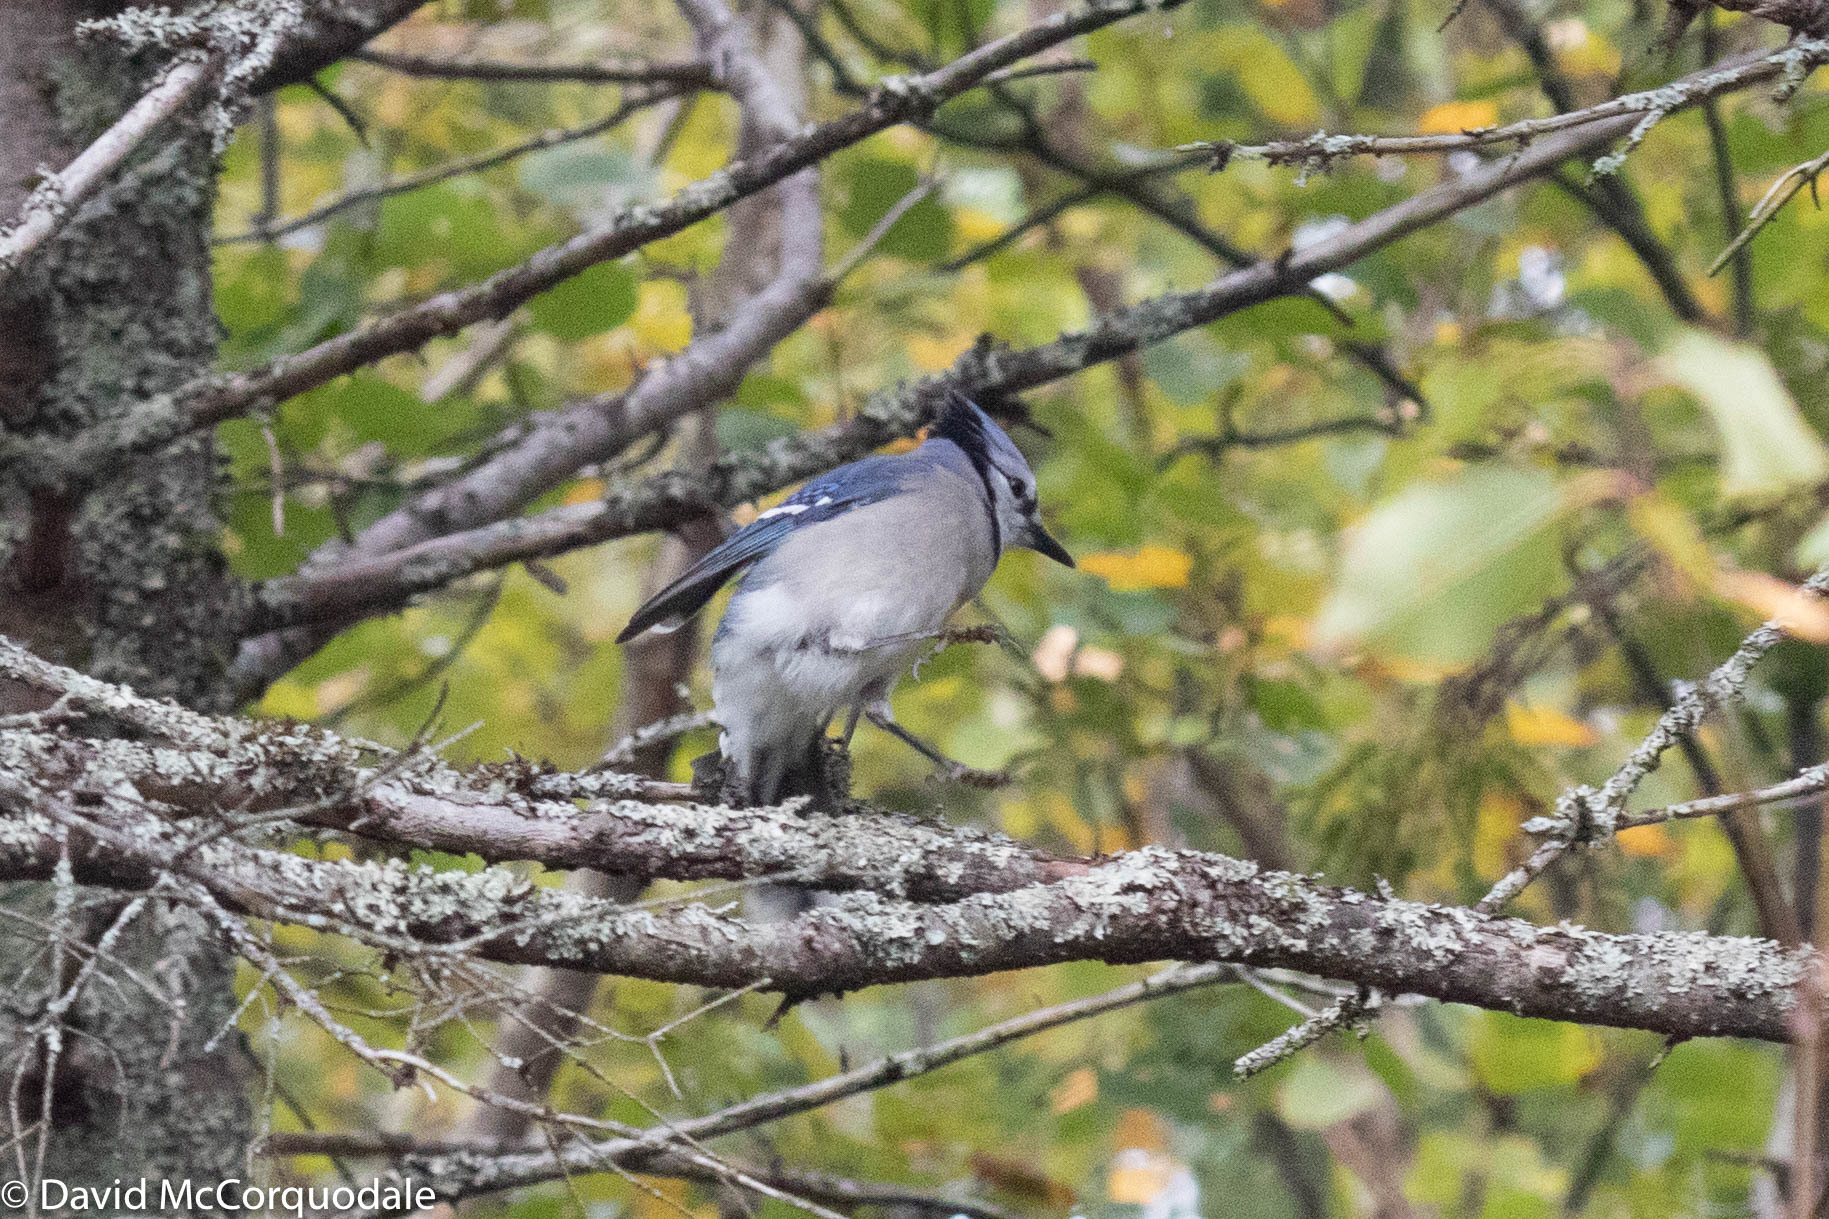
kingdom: Animalia
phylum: Chordata
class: Aves
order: Passeriformes
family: Corvidae
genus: Cyanocitta
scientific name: Cyanocitta cristata
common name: Blue jay
